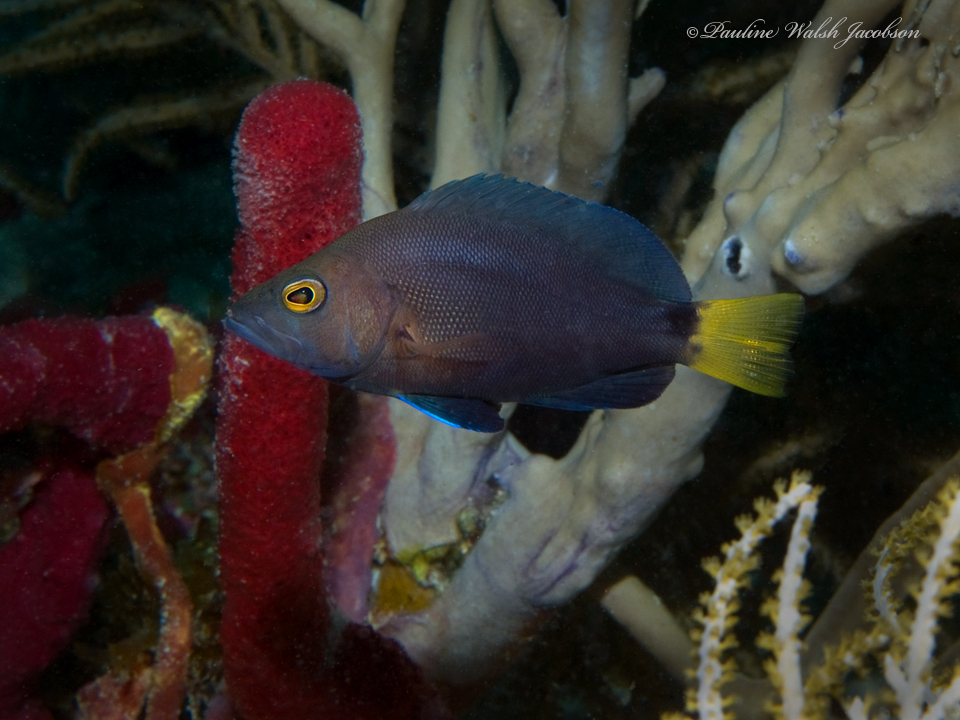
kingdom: Animalia
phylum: Chordata
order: Perciformes
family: Serranidae
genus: Hypoplectrus
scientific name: Hypoplectrus chlorurus
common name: Yellowtail hamlet
